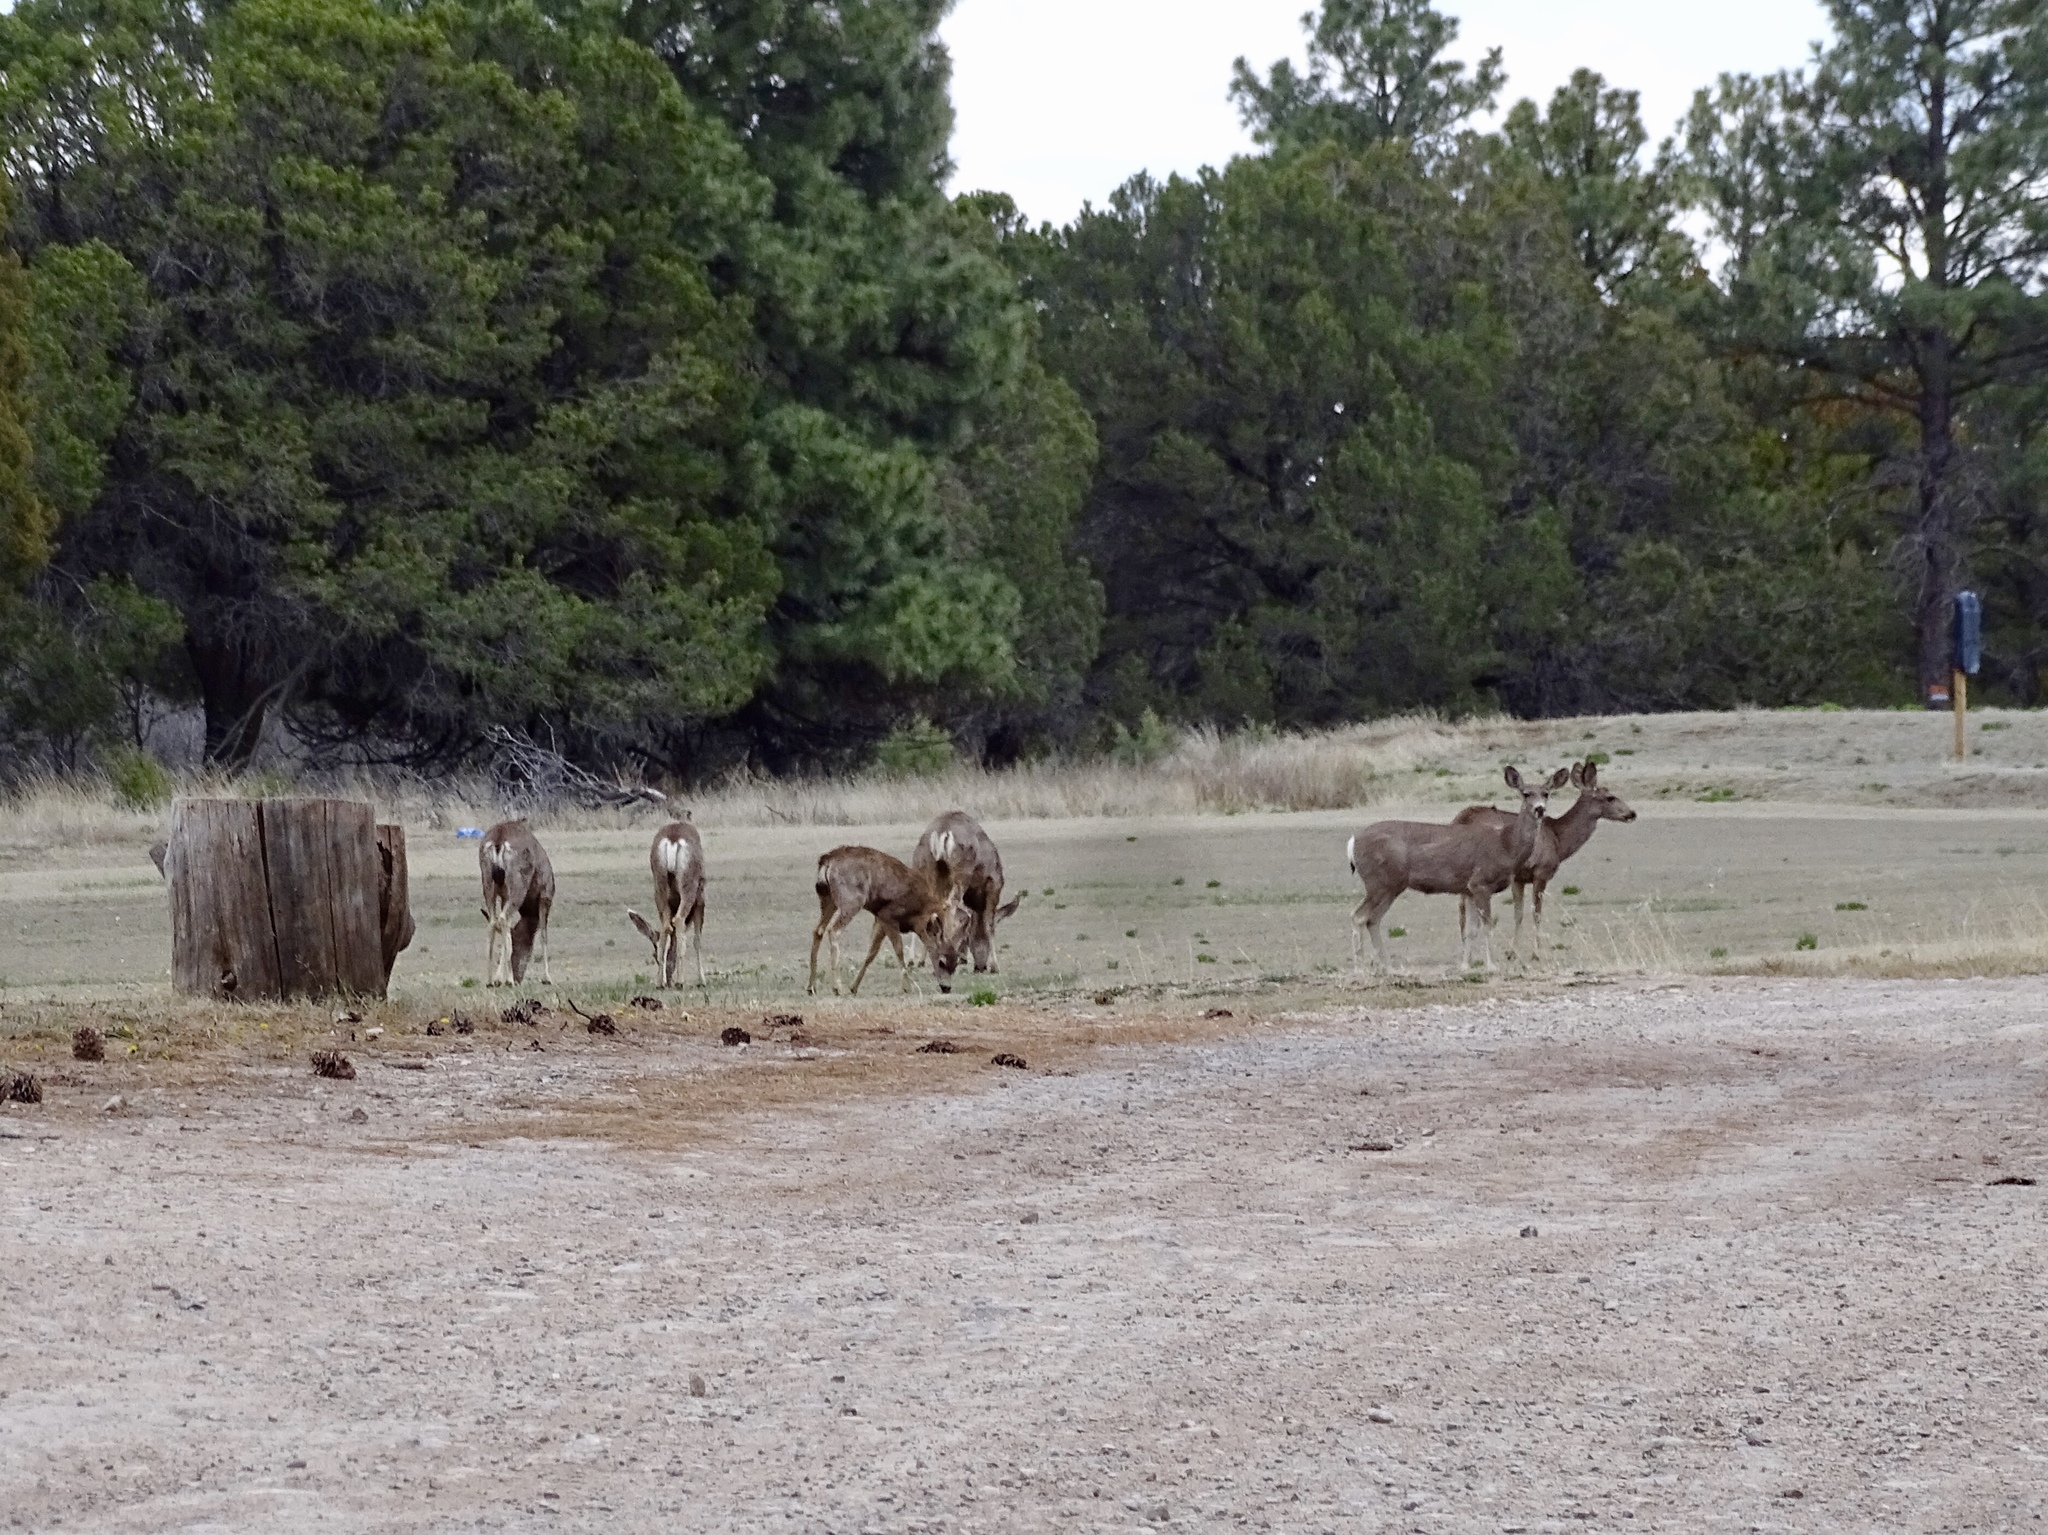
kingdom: Animalia
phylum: Chordata
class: Mammalia
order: Artiodactyla
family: Cervidae
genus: Odocoileus
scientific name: Odocoileus hemionus
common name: Mule deer
